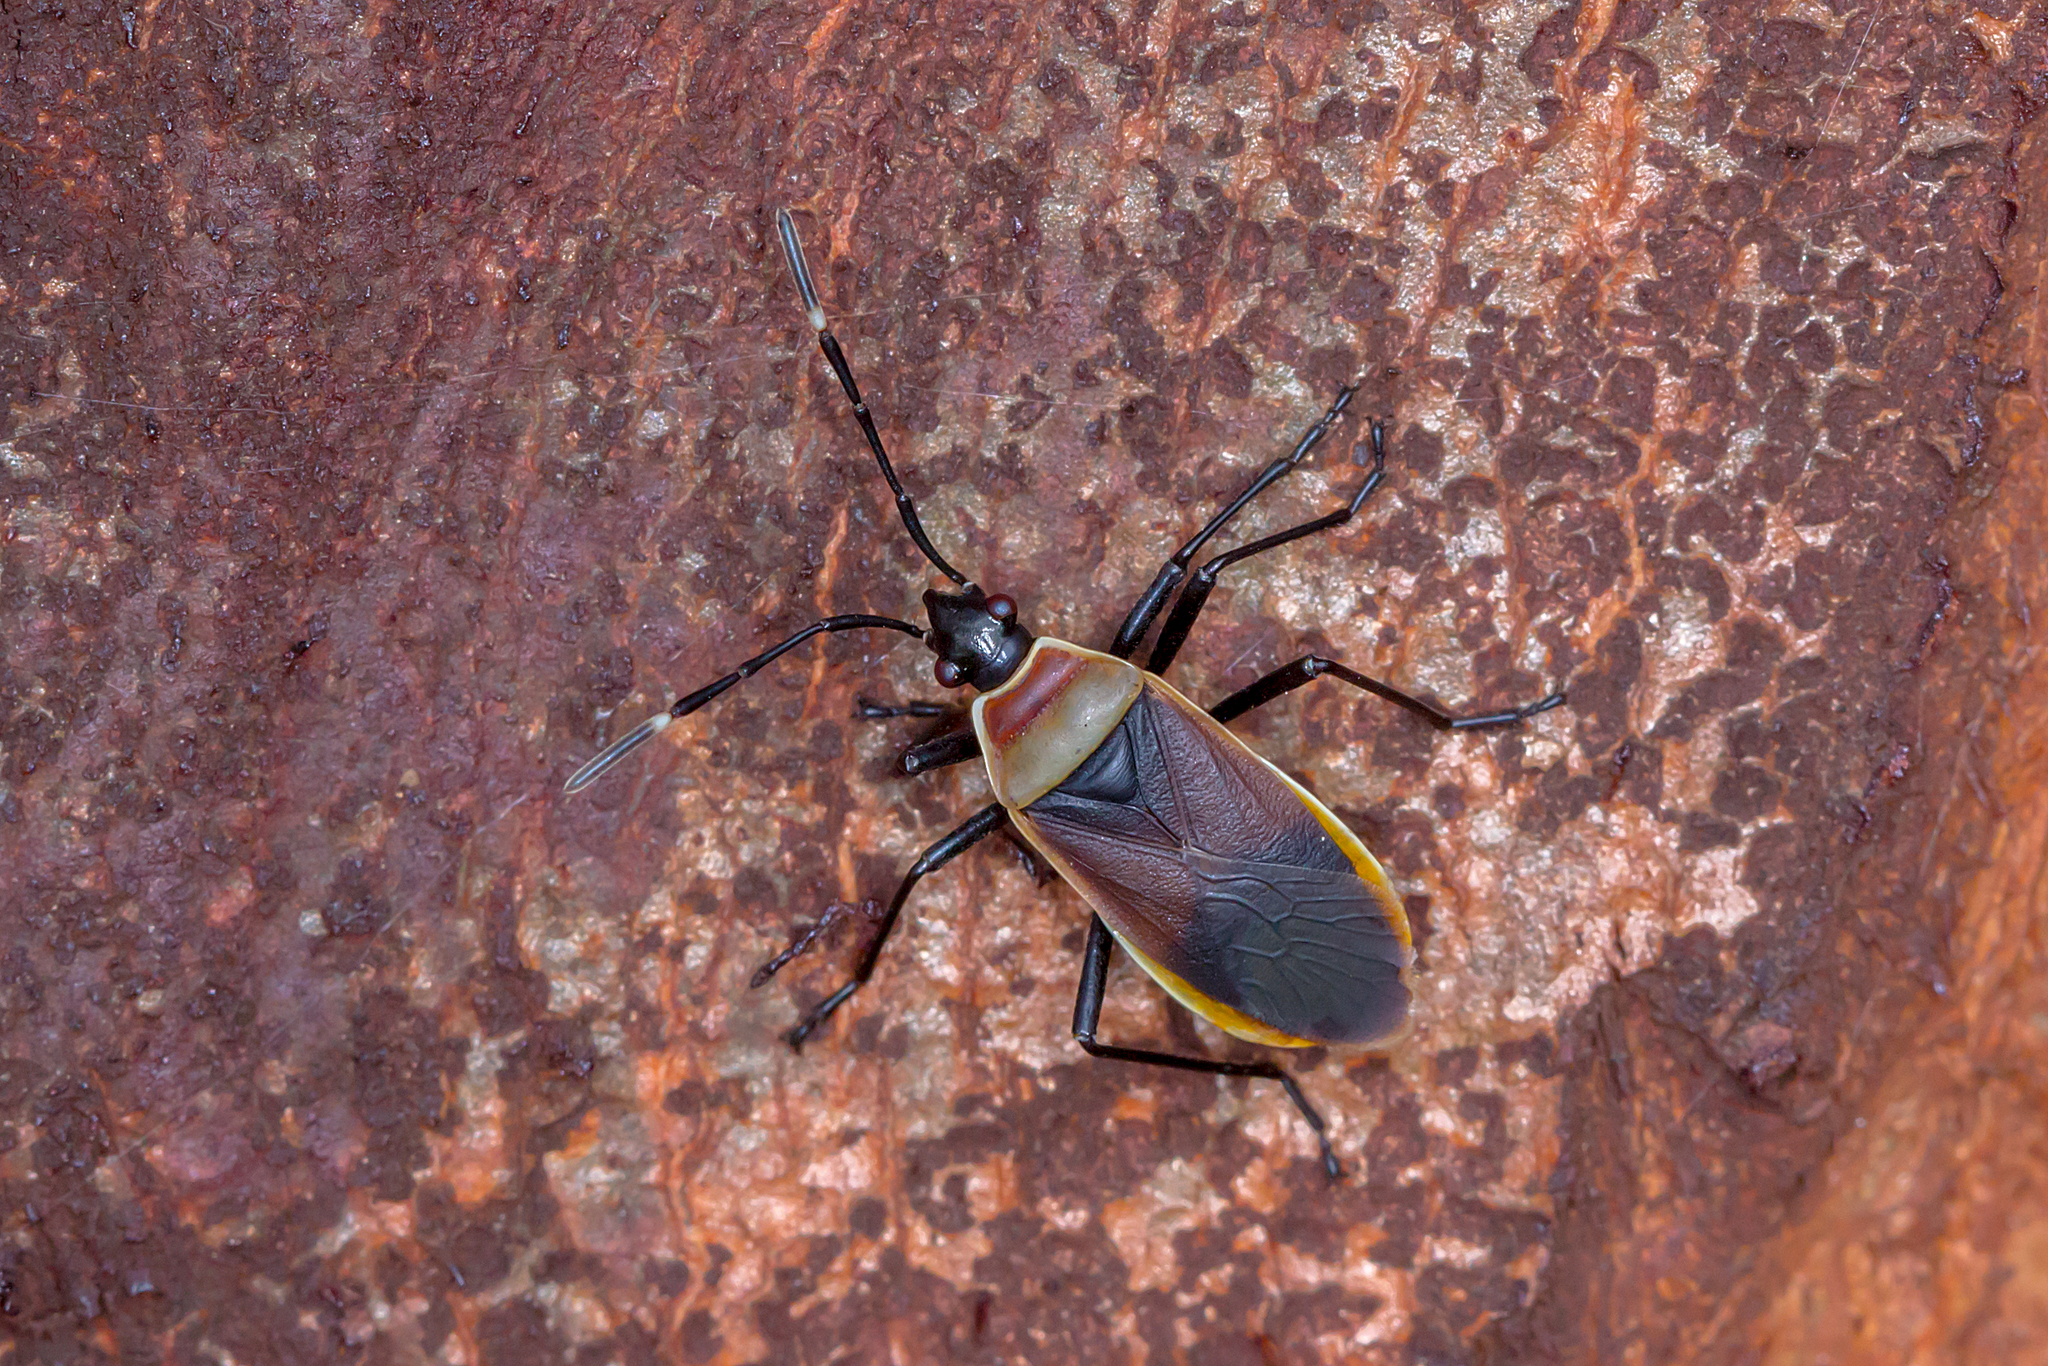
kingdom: Animalia
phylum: Arthropoda
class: Insecta
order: Hemiptera
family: Pyrrhocoridae
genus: Dindymus
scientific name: Dindymus
